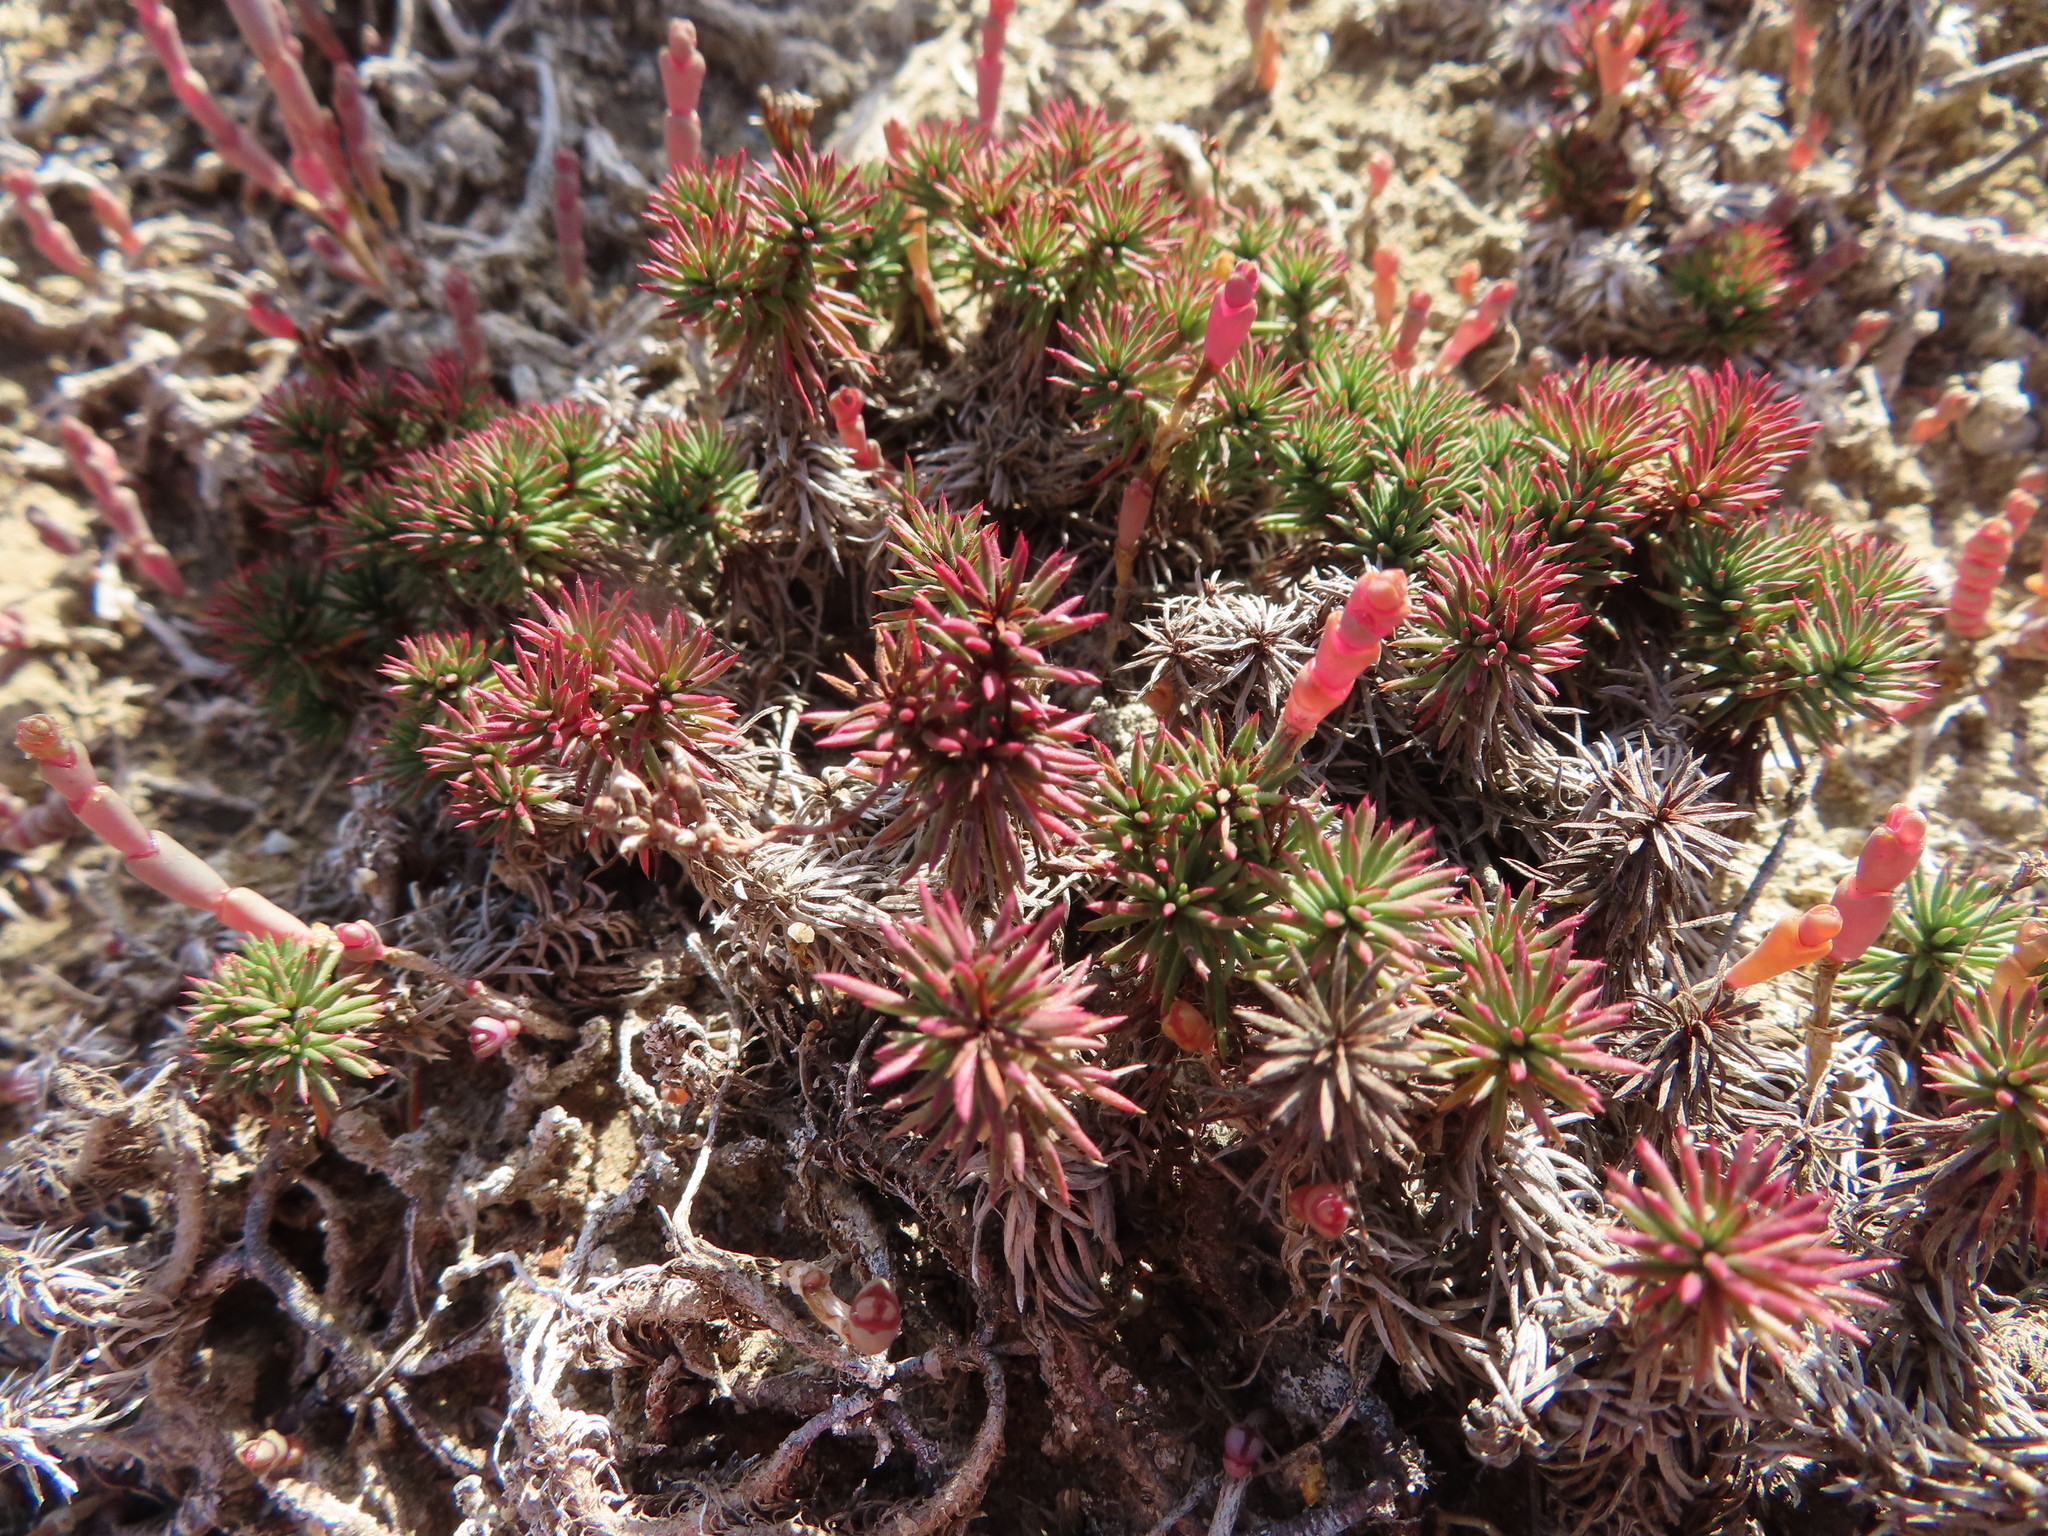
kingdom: Plantae
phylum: Tracheophyta
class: Magnoliopsida
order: Caryophyllales
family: Plumbaginaceae
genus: Limonium
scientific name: Limonium kraussianum
